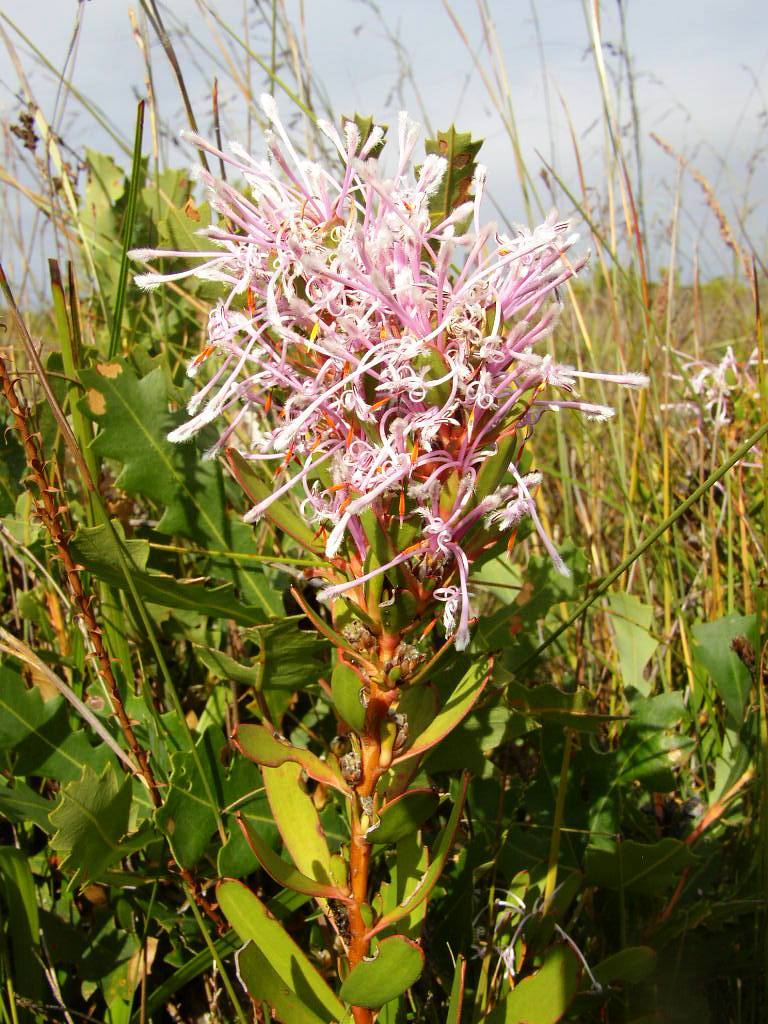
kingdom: Plantae
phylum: Tracheophyta
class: Magnoliopsida
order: Proteales
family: Proteaceae
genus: Isopogon
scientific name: Isopogon axillaris
